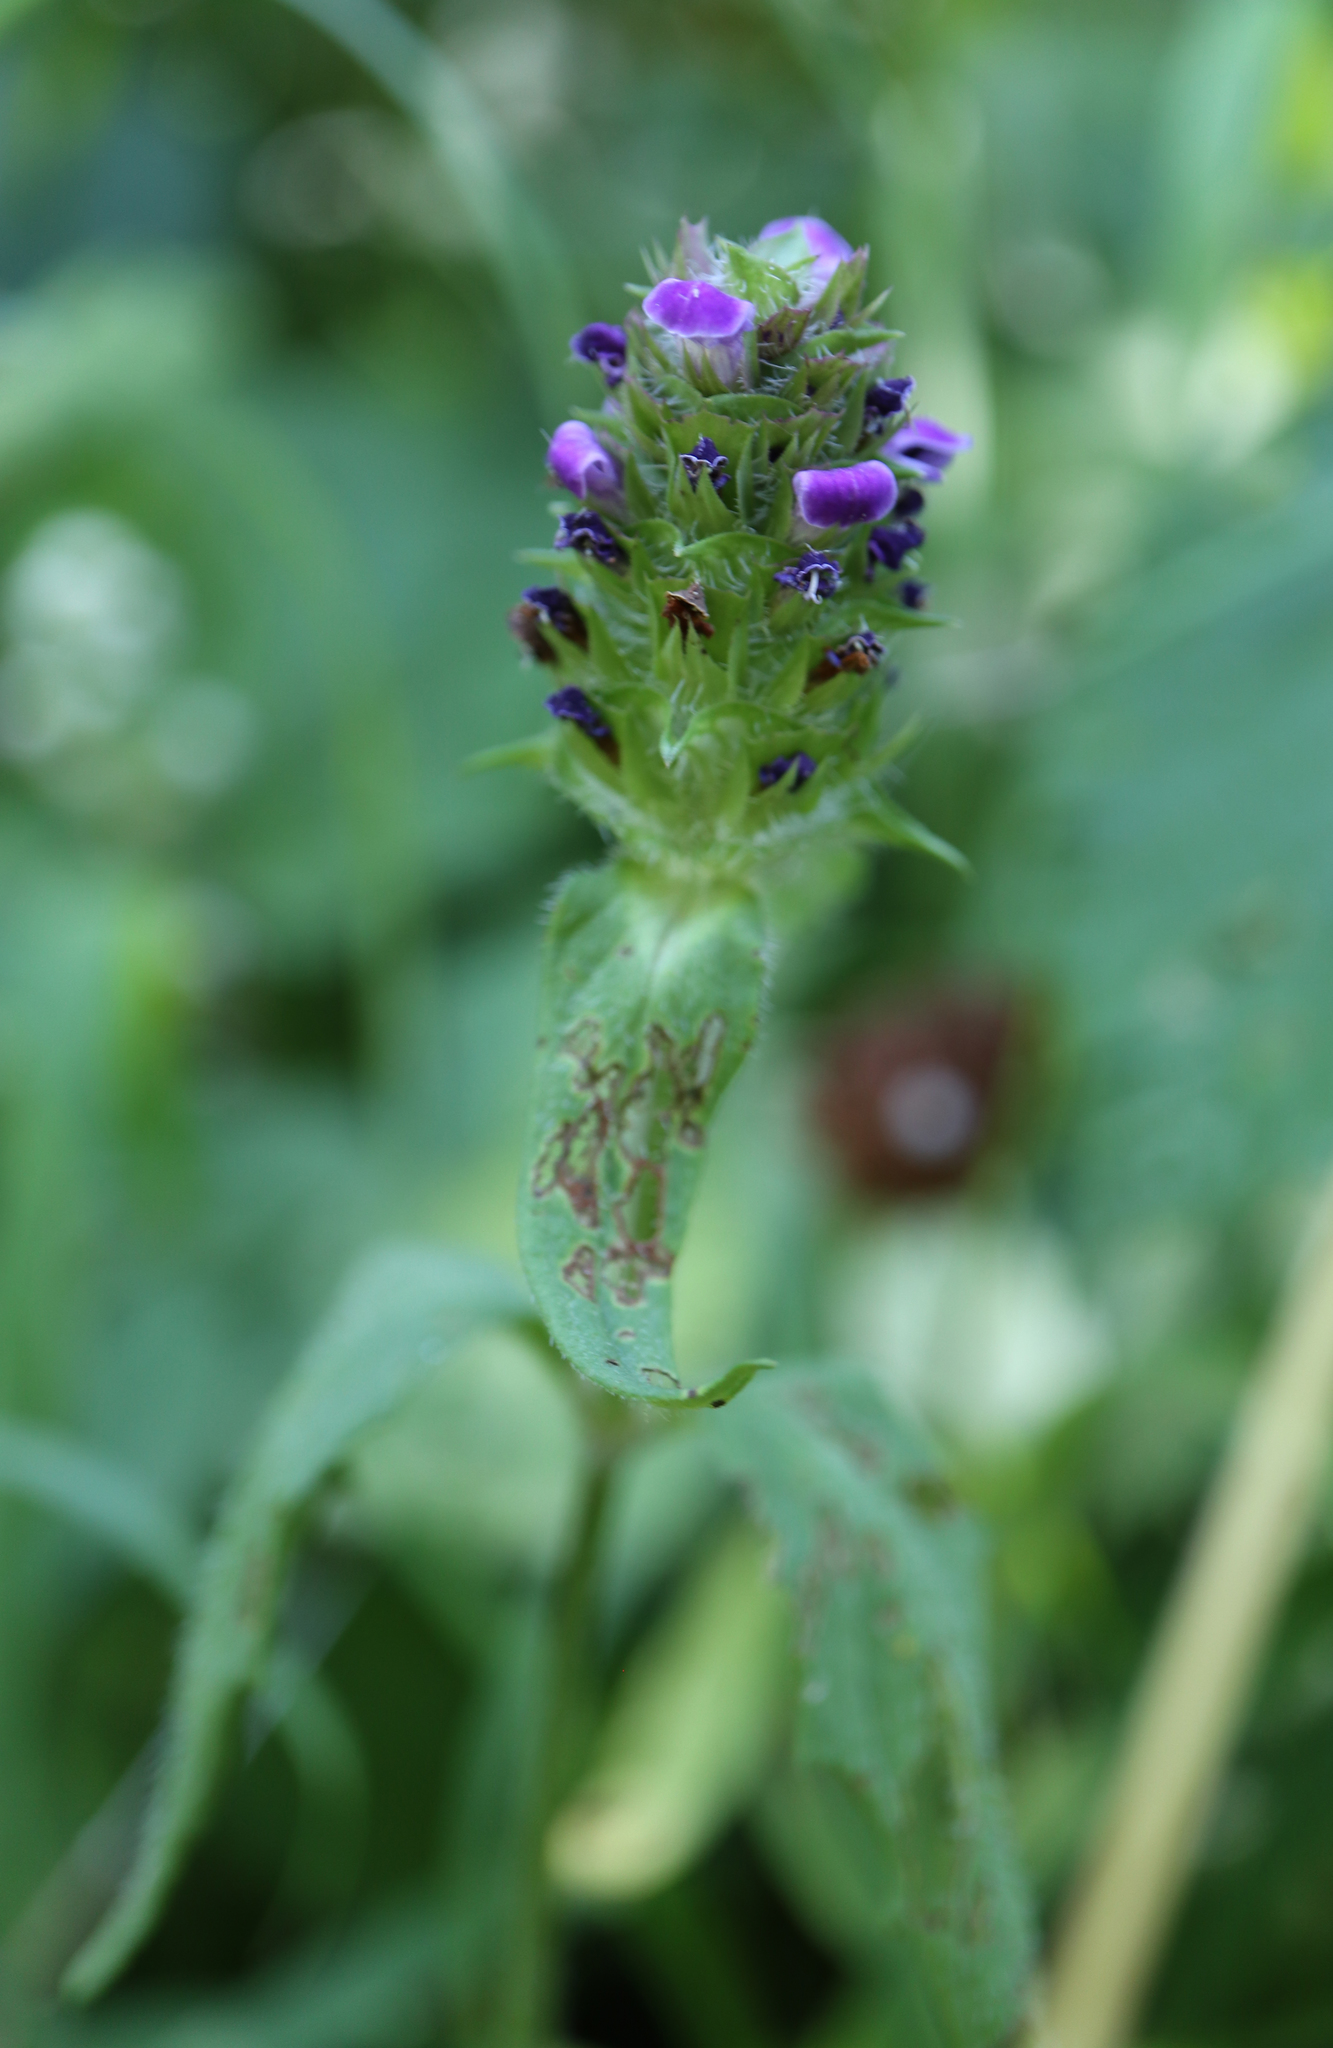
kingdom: Plantae
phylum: Tracheophyta
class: Magnoliopsida
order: Lamiales
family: Lamiaceae
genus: Prunella
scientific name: Prunella vulgaris
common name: Heal-all
